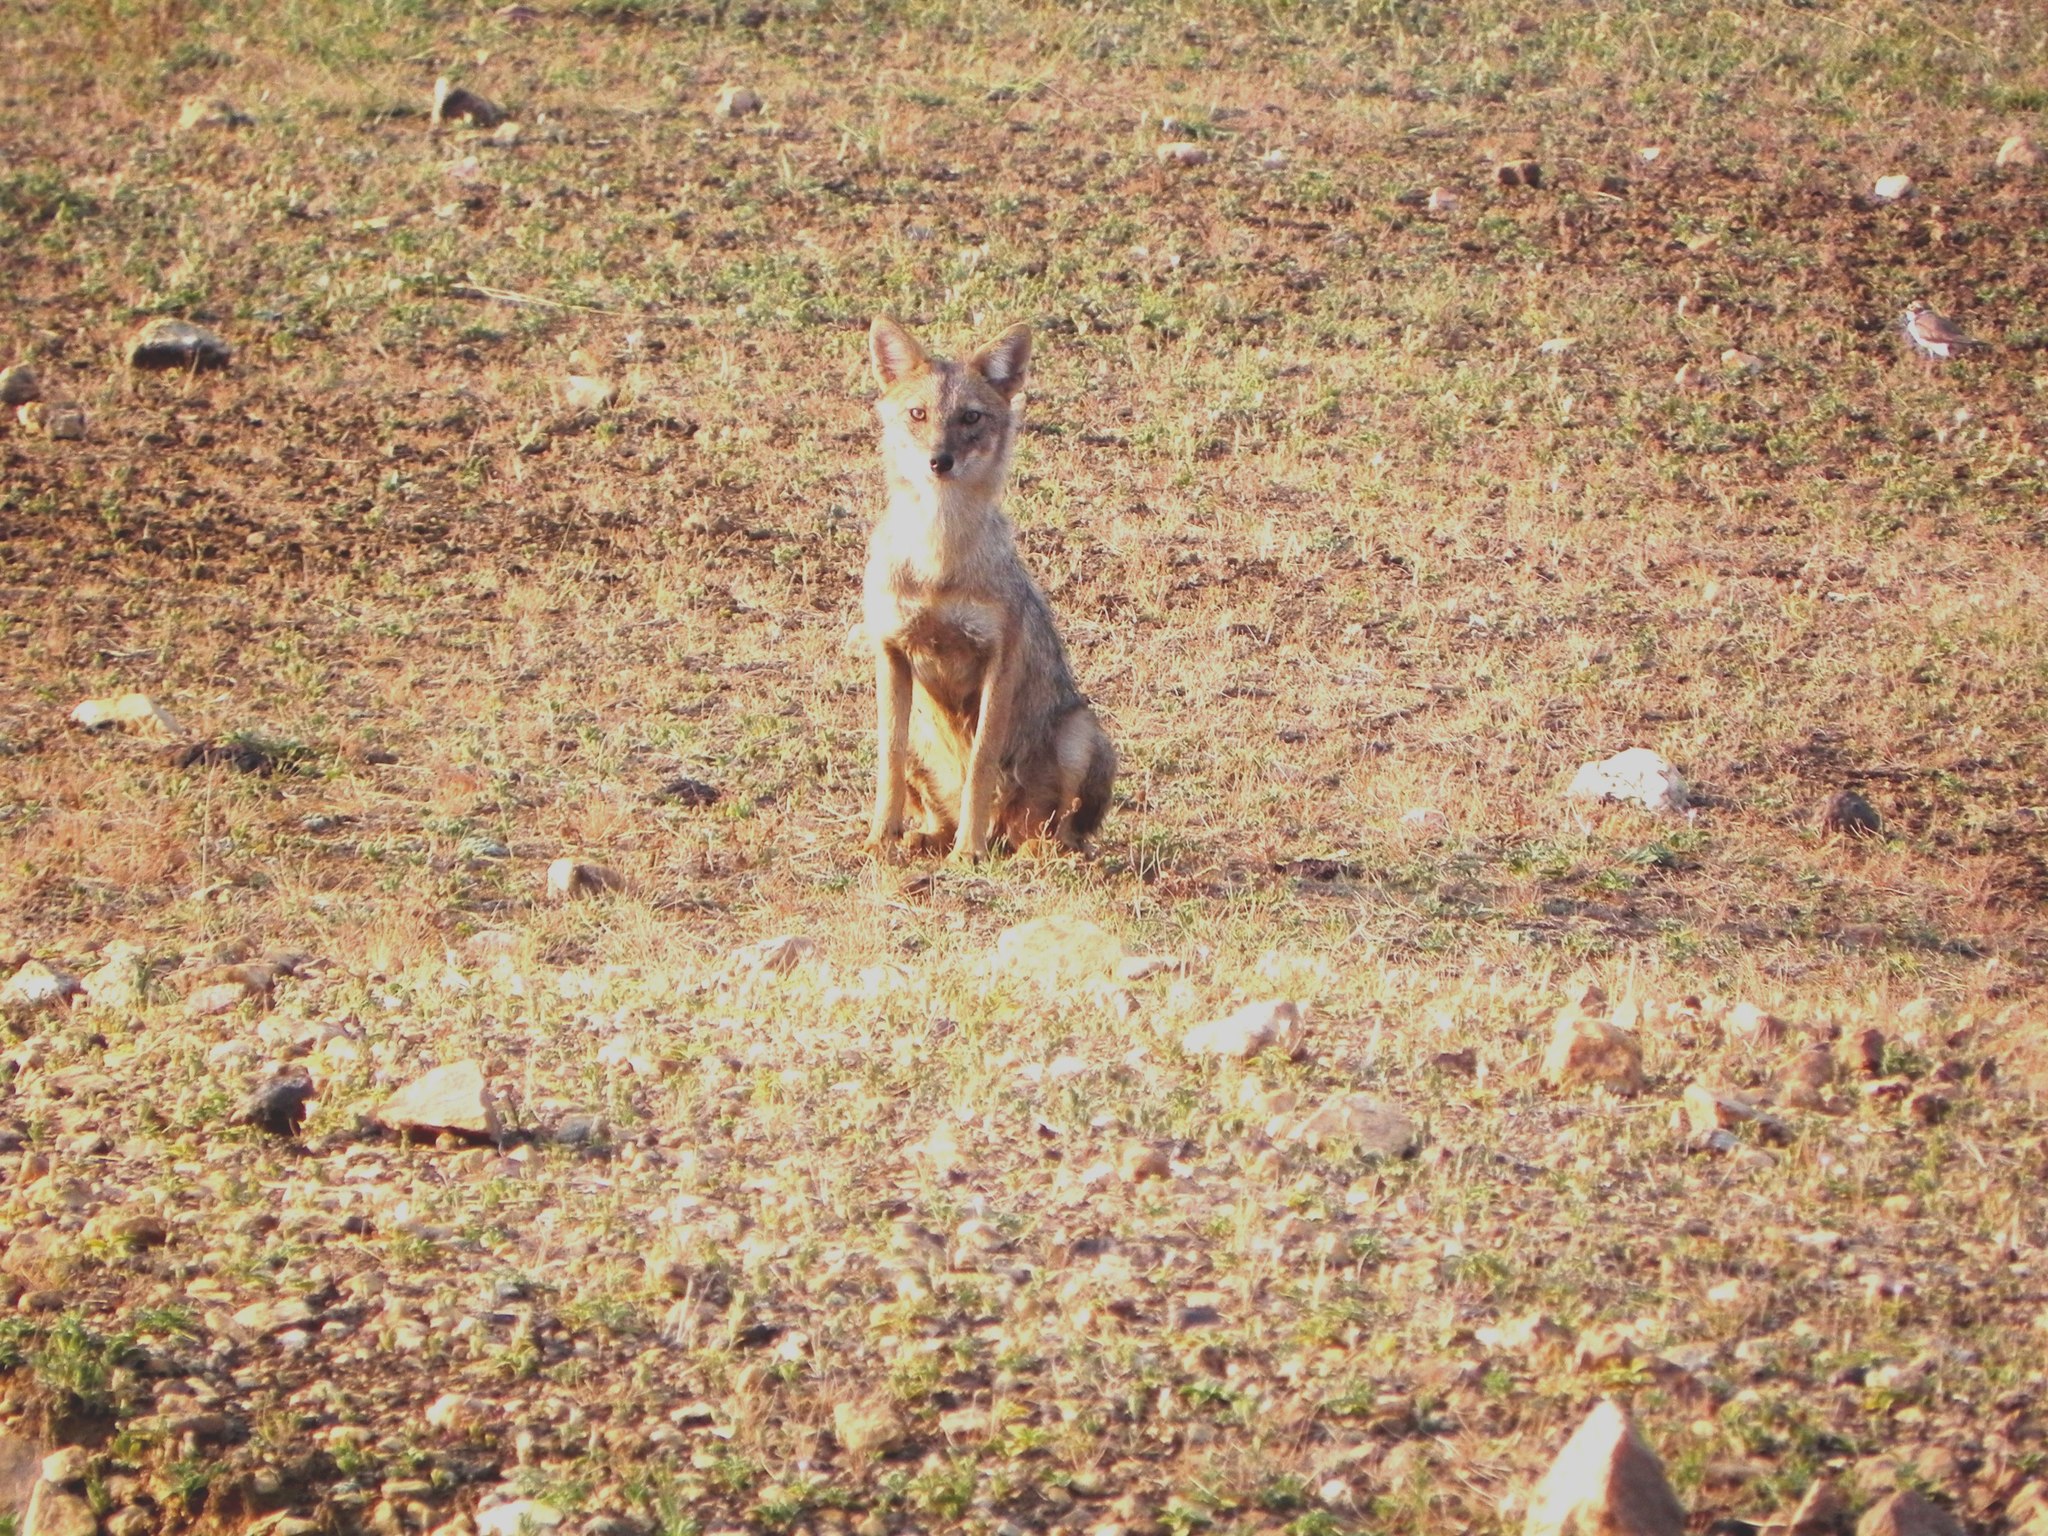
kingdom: Animalia
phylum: Chordata
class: Mammalia
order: Carnivora
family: Canidae
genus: Canis
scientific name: Canis aureus
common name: Golden jackal
